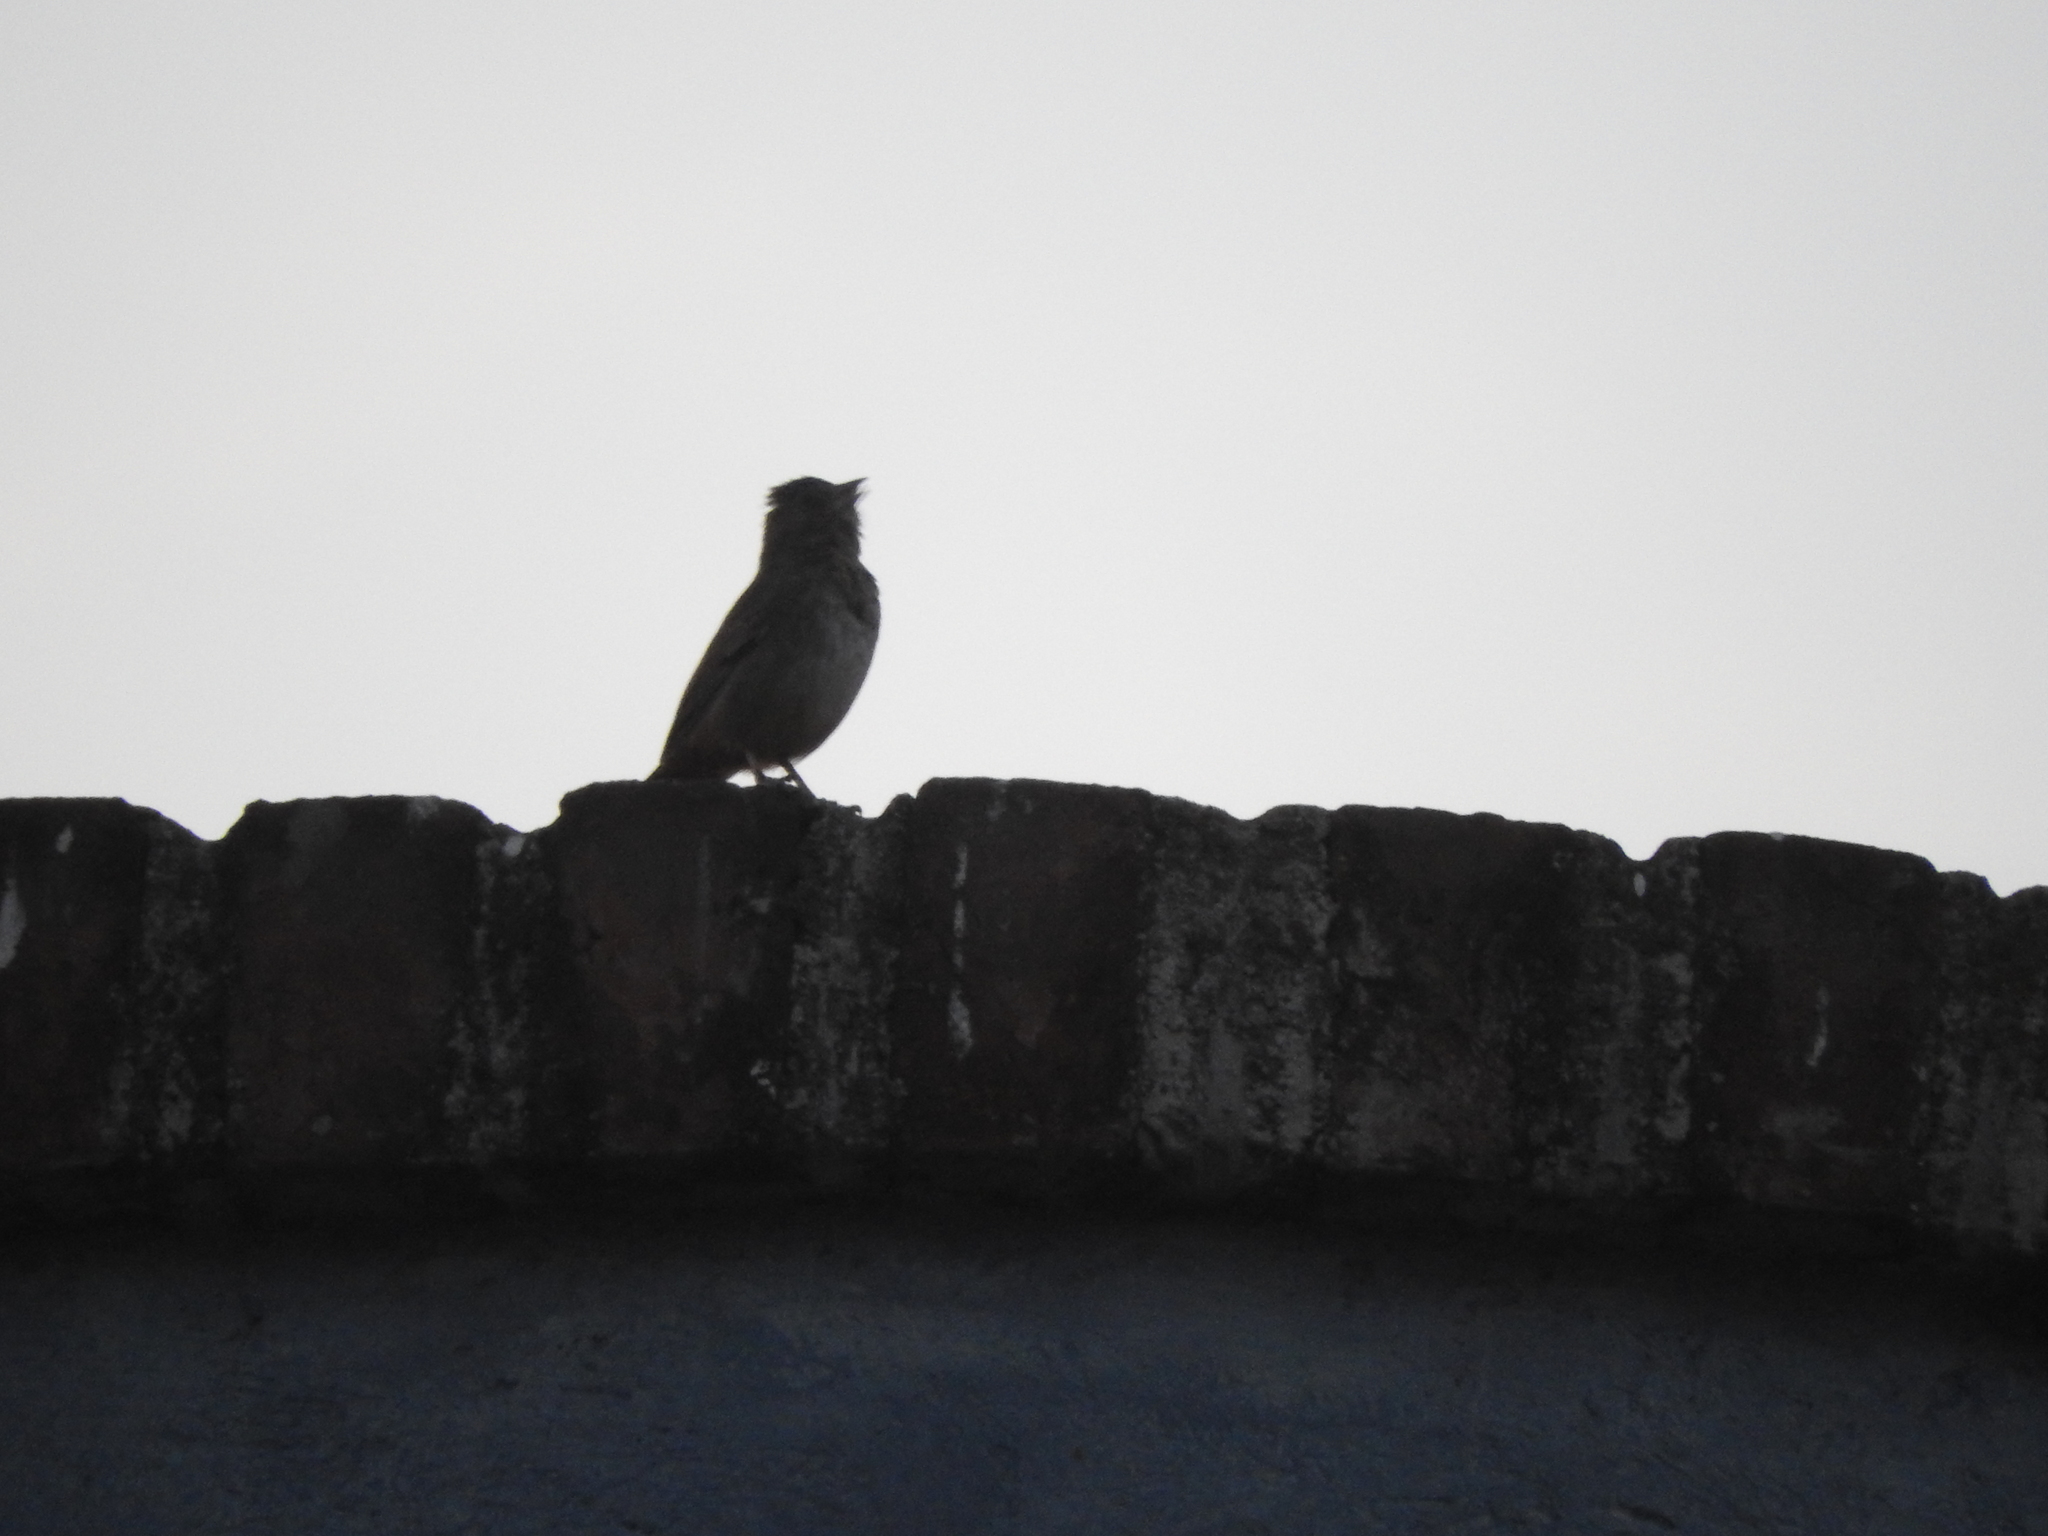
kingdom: Animalia
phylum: Chordata
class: Aves
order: Passeriformes
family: Passerellidae
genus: Melozone
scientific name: Melozone fusca
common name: Canyon towhee
